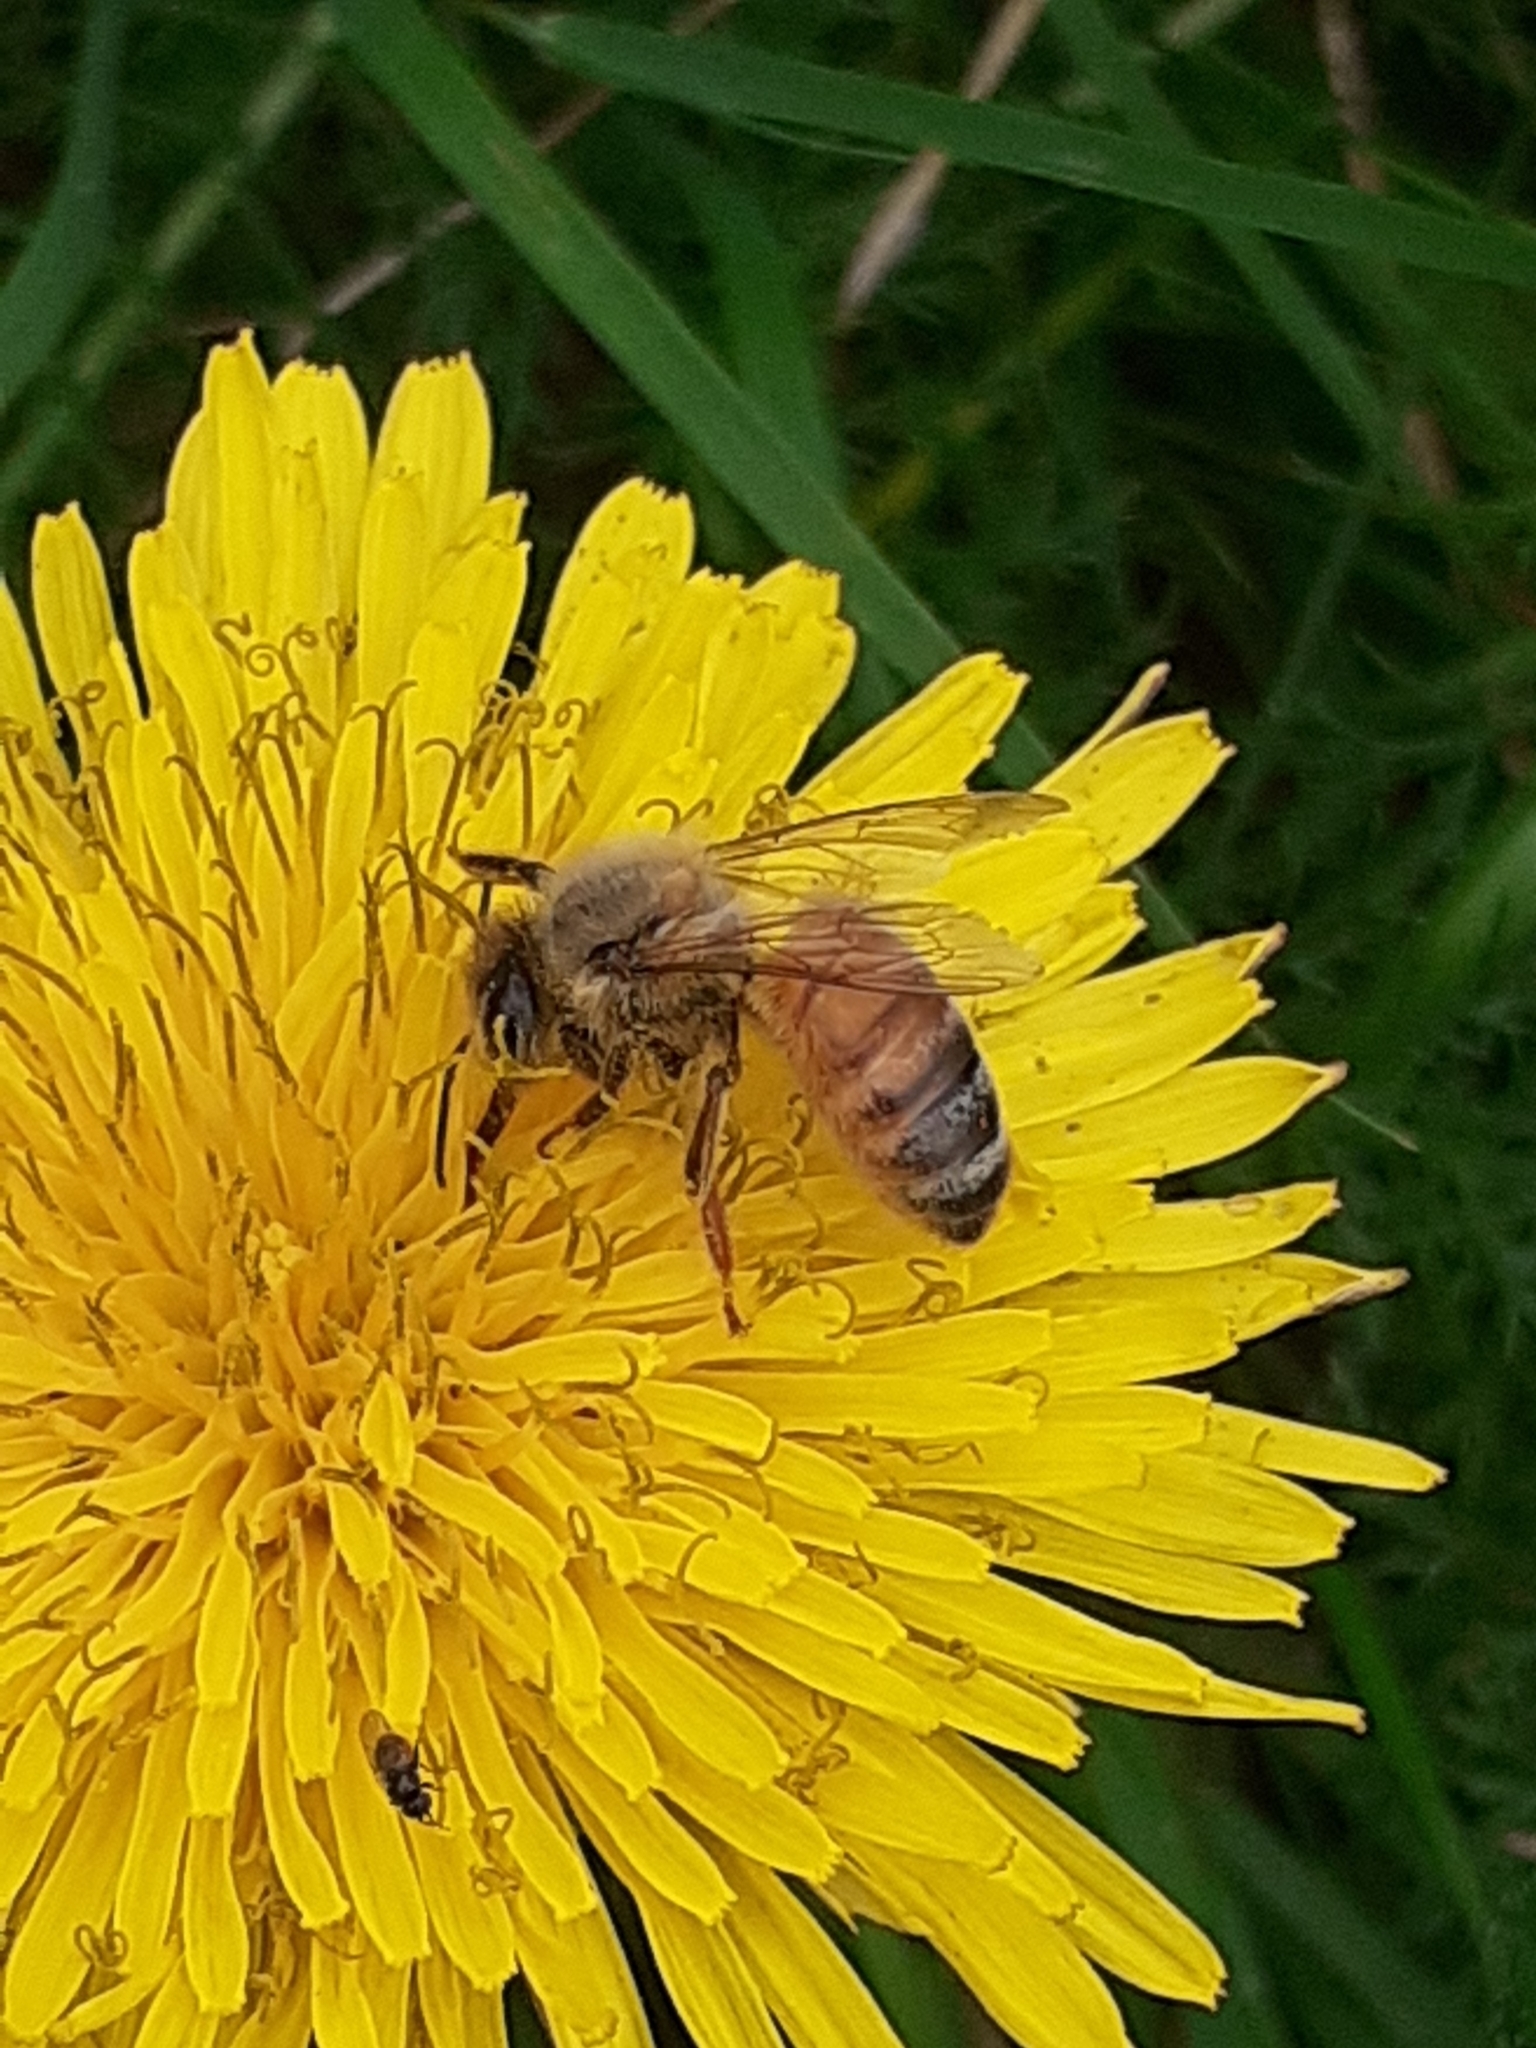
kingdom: Animalia
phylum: Arthropoda
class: Insecta
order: Hymenoptera
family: Apidae
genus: Apis
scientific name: Apis mellifera
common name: Honey bee
